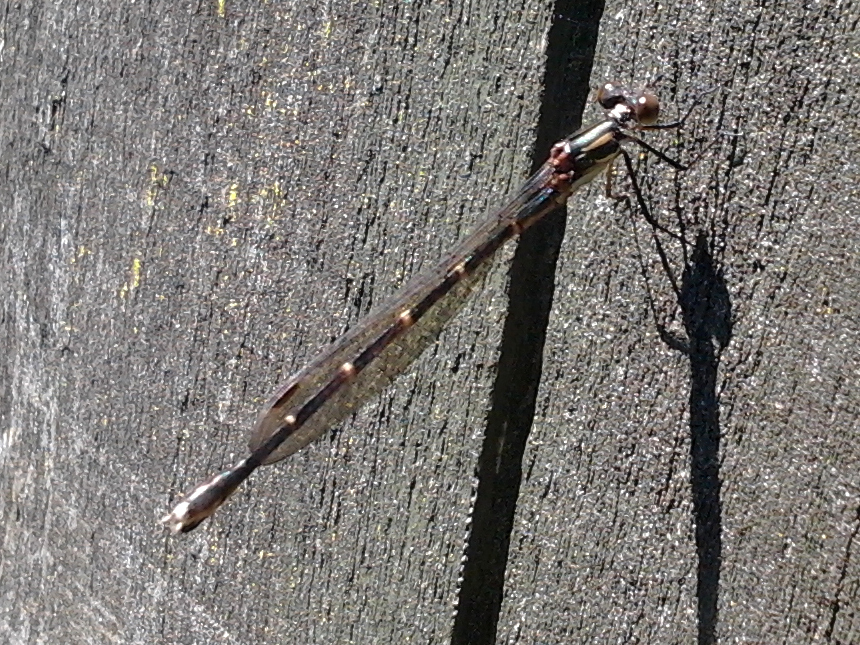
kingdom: Animalia
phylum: Arthropoda
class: Insecta
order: Odonata
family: Lestidae
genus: Austrolestes
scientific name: Austrolestes colensonis
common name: Blue damselfly
